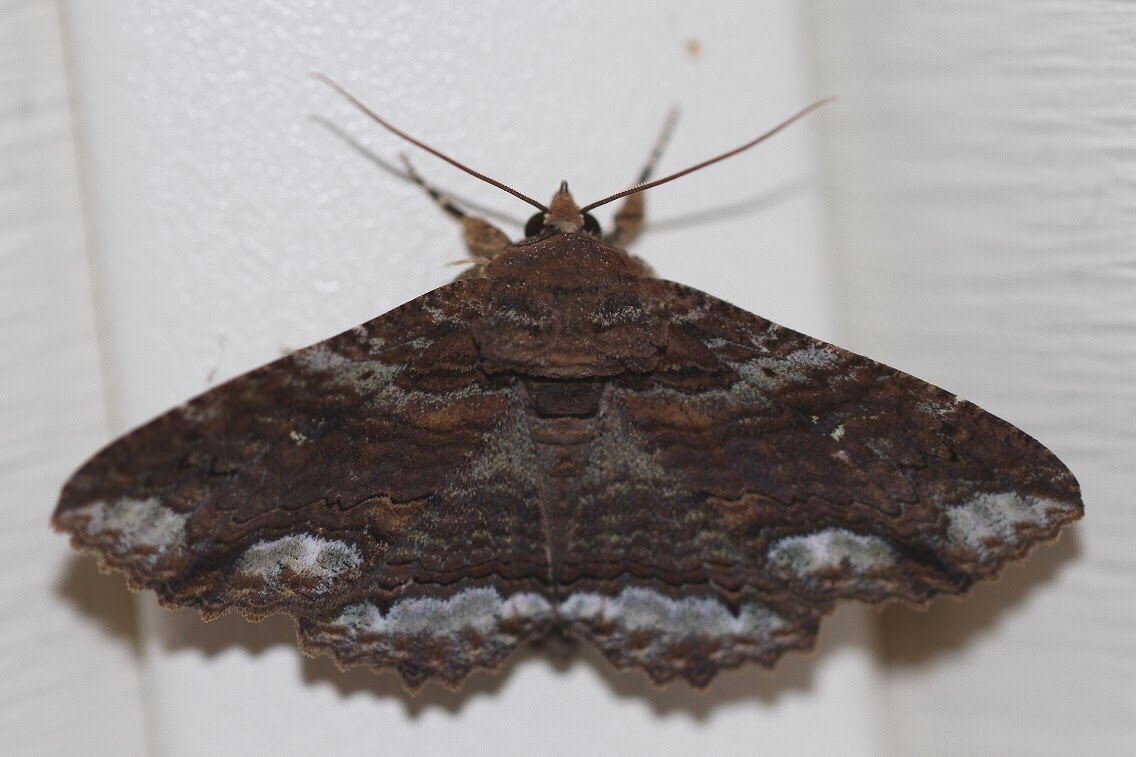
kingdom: Animalia
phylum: Arthropoda
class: Insecta
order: Lepidoptera
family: Erebidae
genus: Zale
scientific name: Zale lunata
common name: Lunate zale moth
